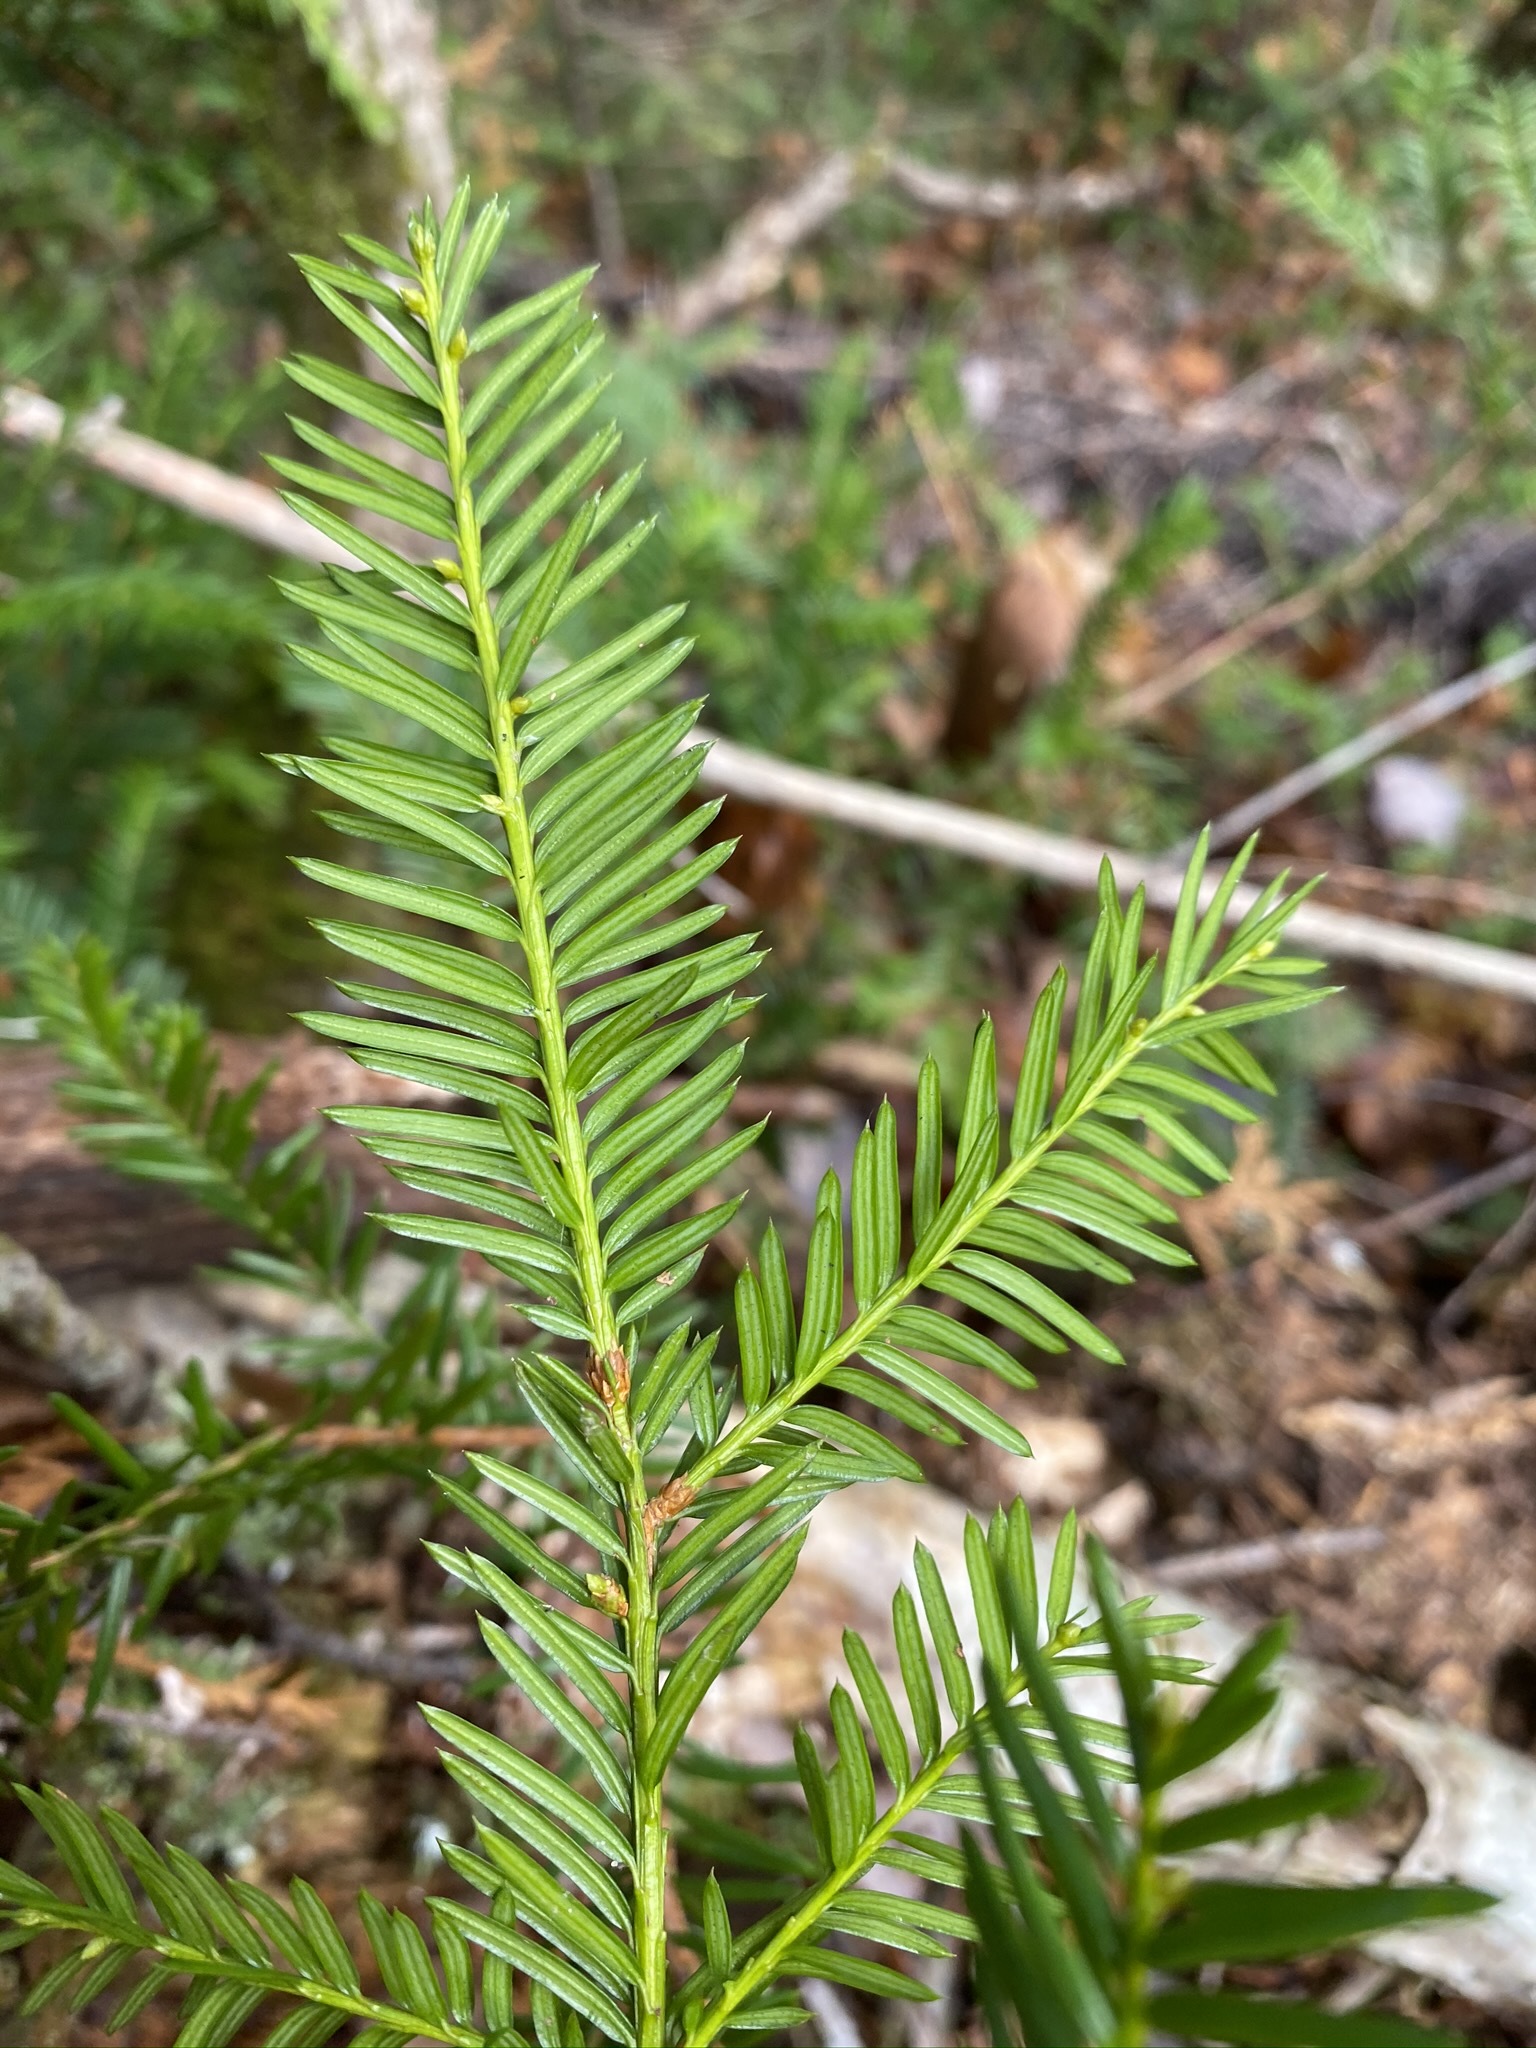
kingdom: Plantae
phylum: Tracheophyta
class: Pinopsida
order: Pinales
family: Taxaceae
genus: Taxus
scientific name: Taxus canadensis
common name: American yew
